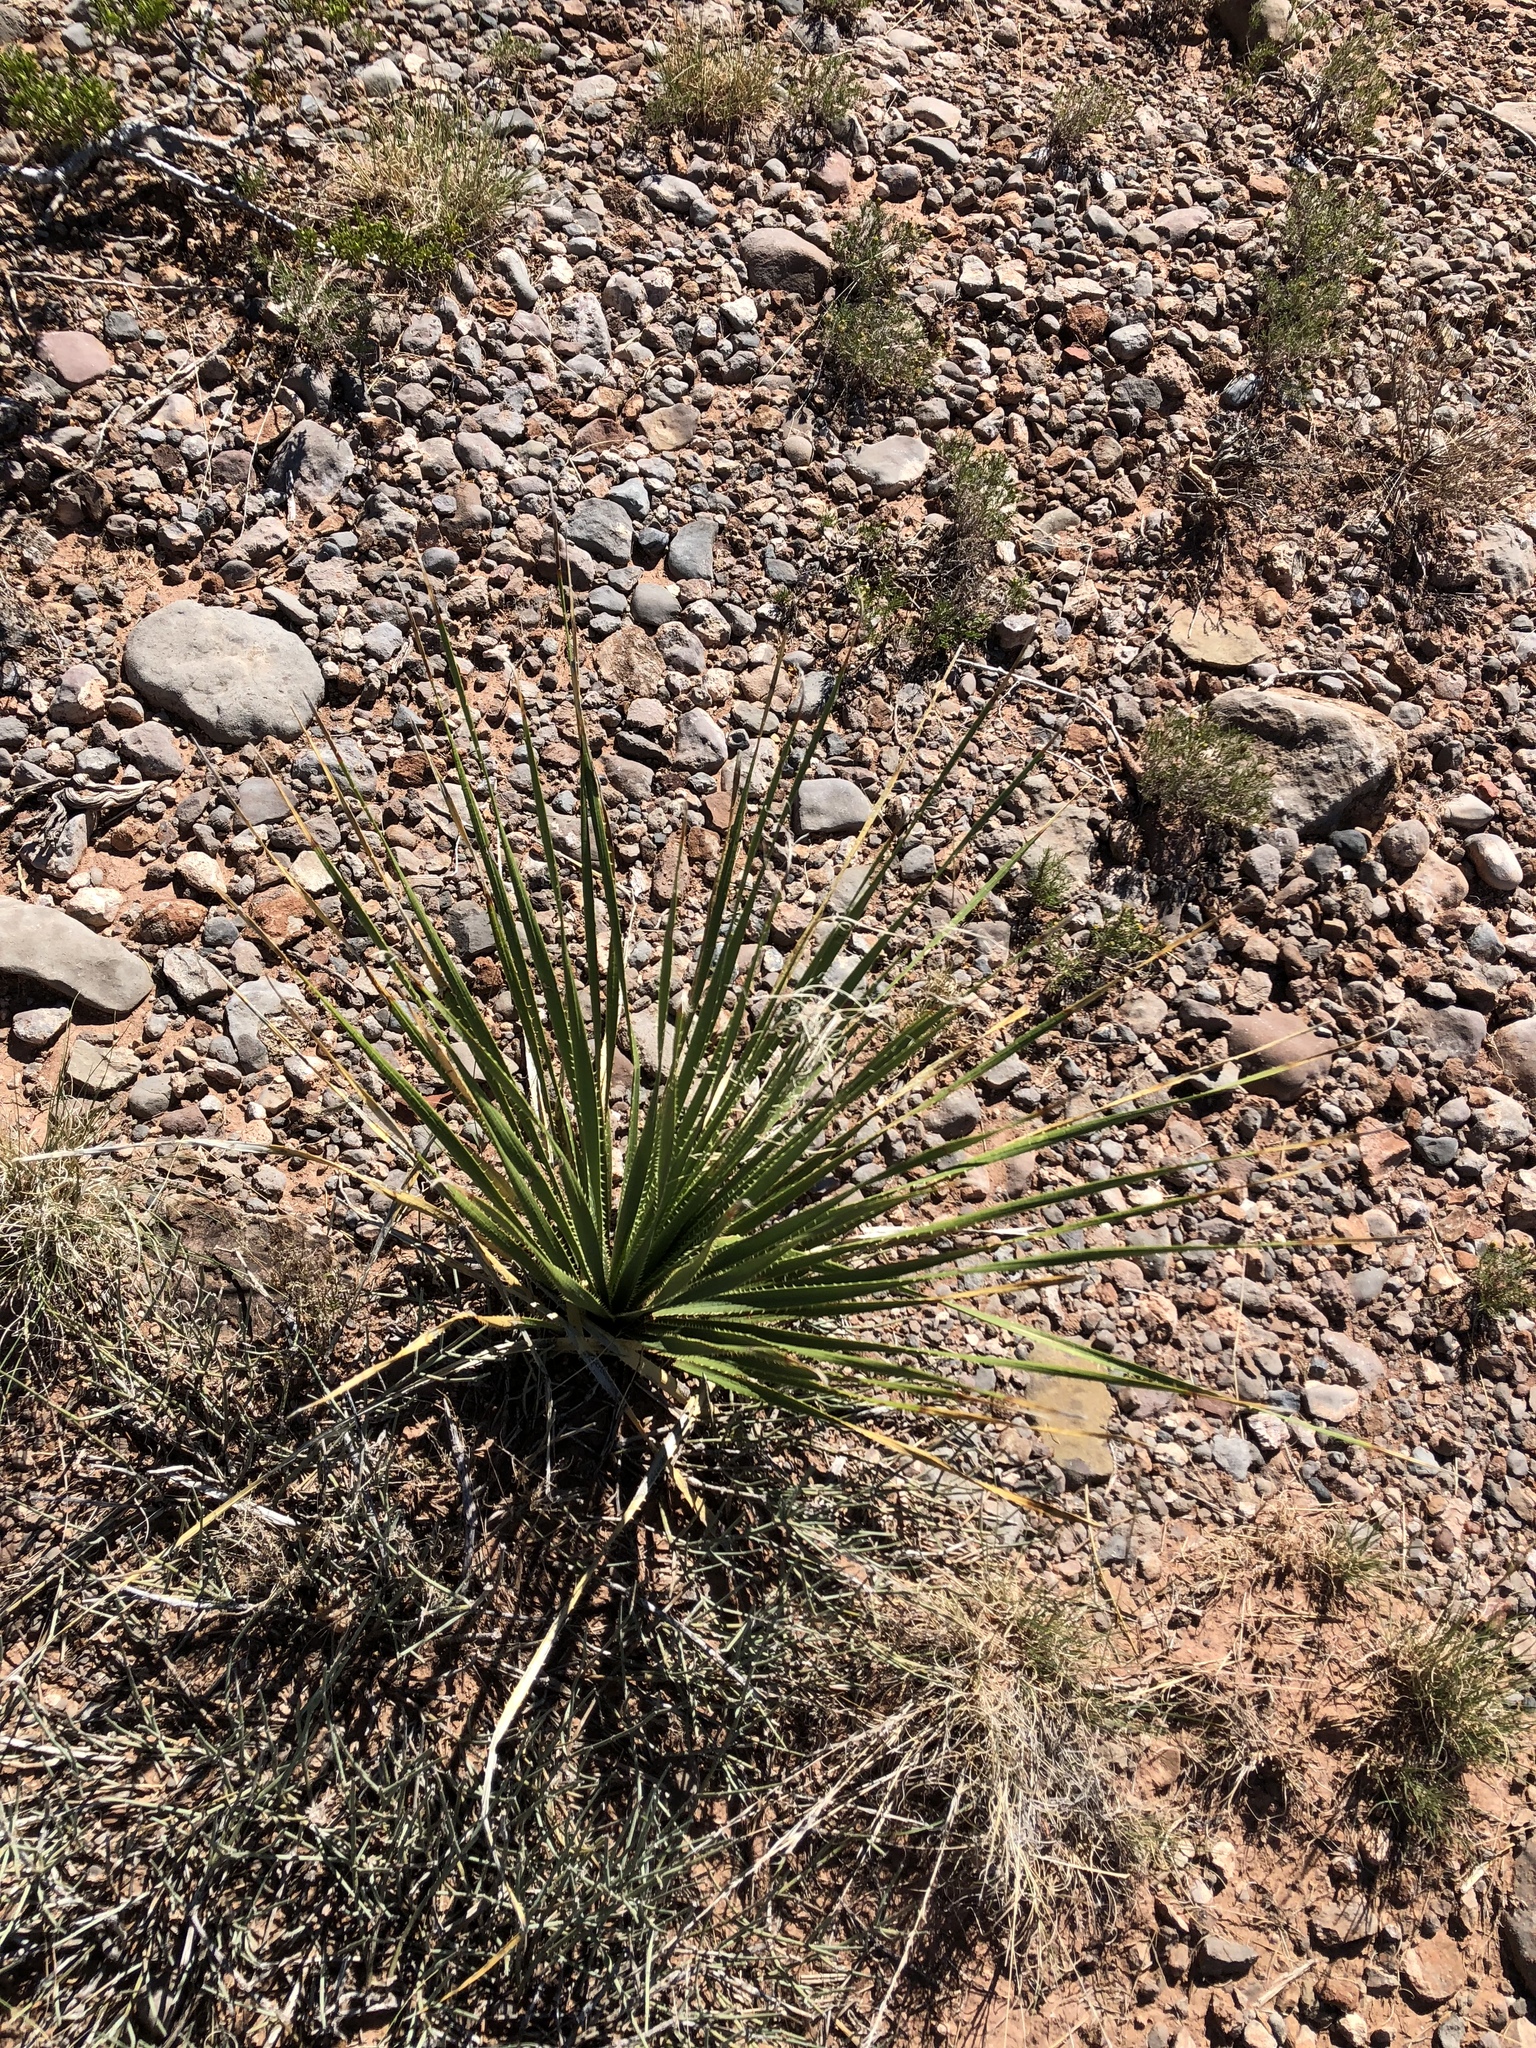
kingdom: Plantae
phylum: Tracheophyta
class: Liliopsida
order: Asparagales
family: Asparagaceae
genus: Dasylirion
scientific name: Dasylirion wheeleri
